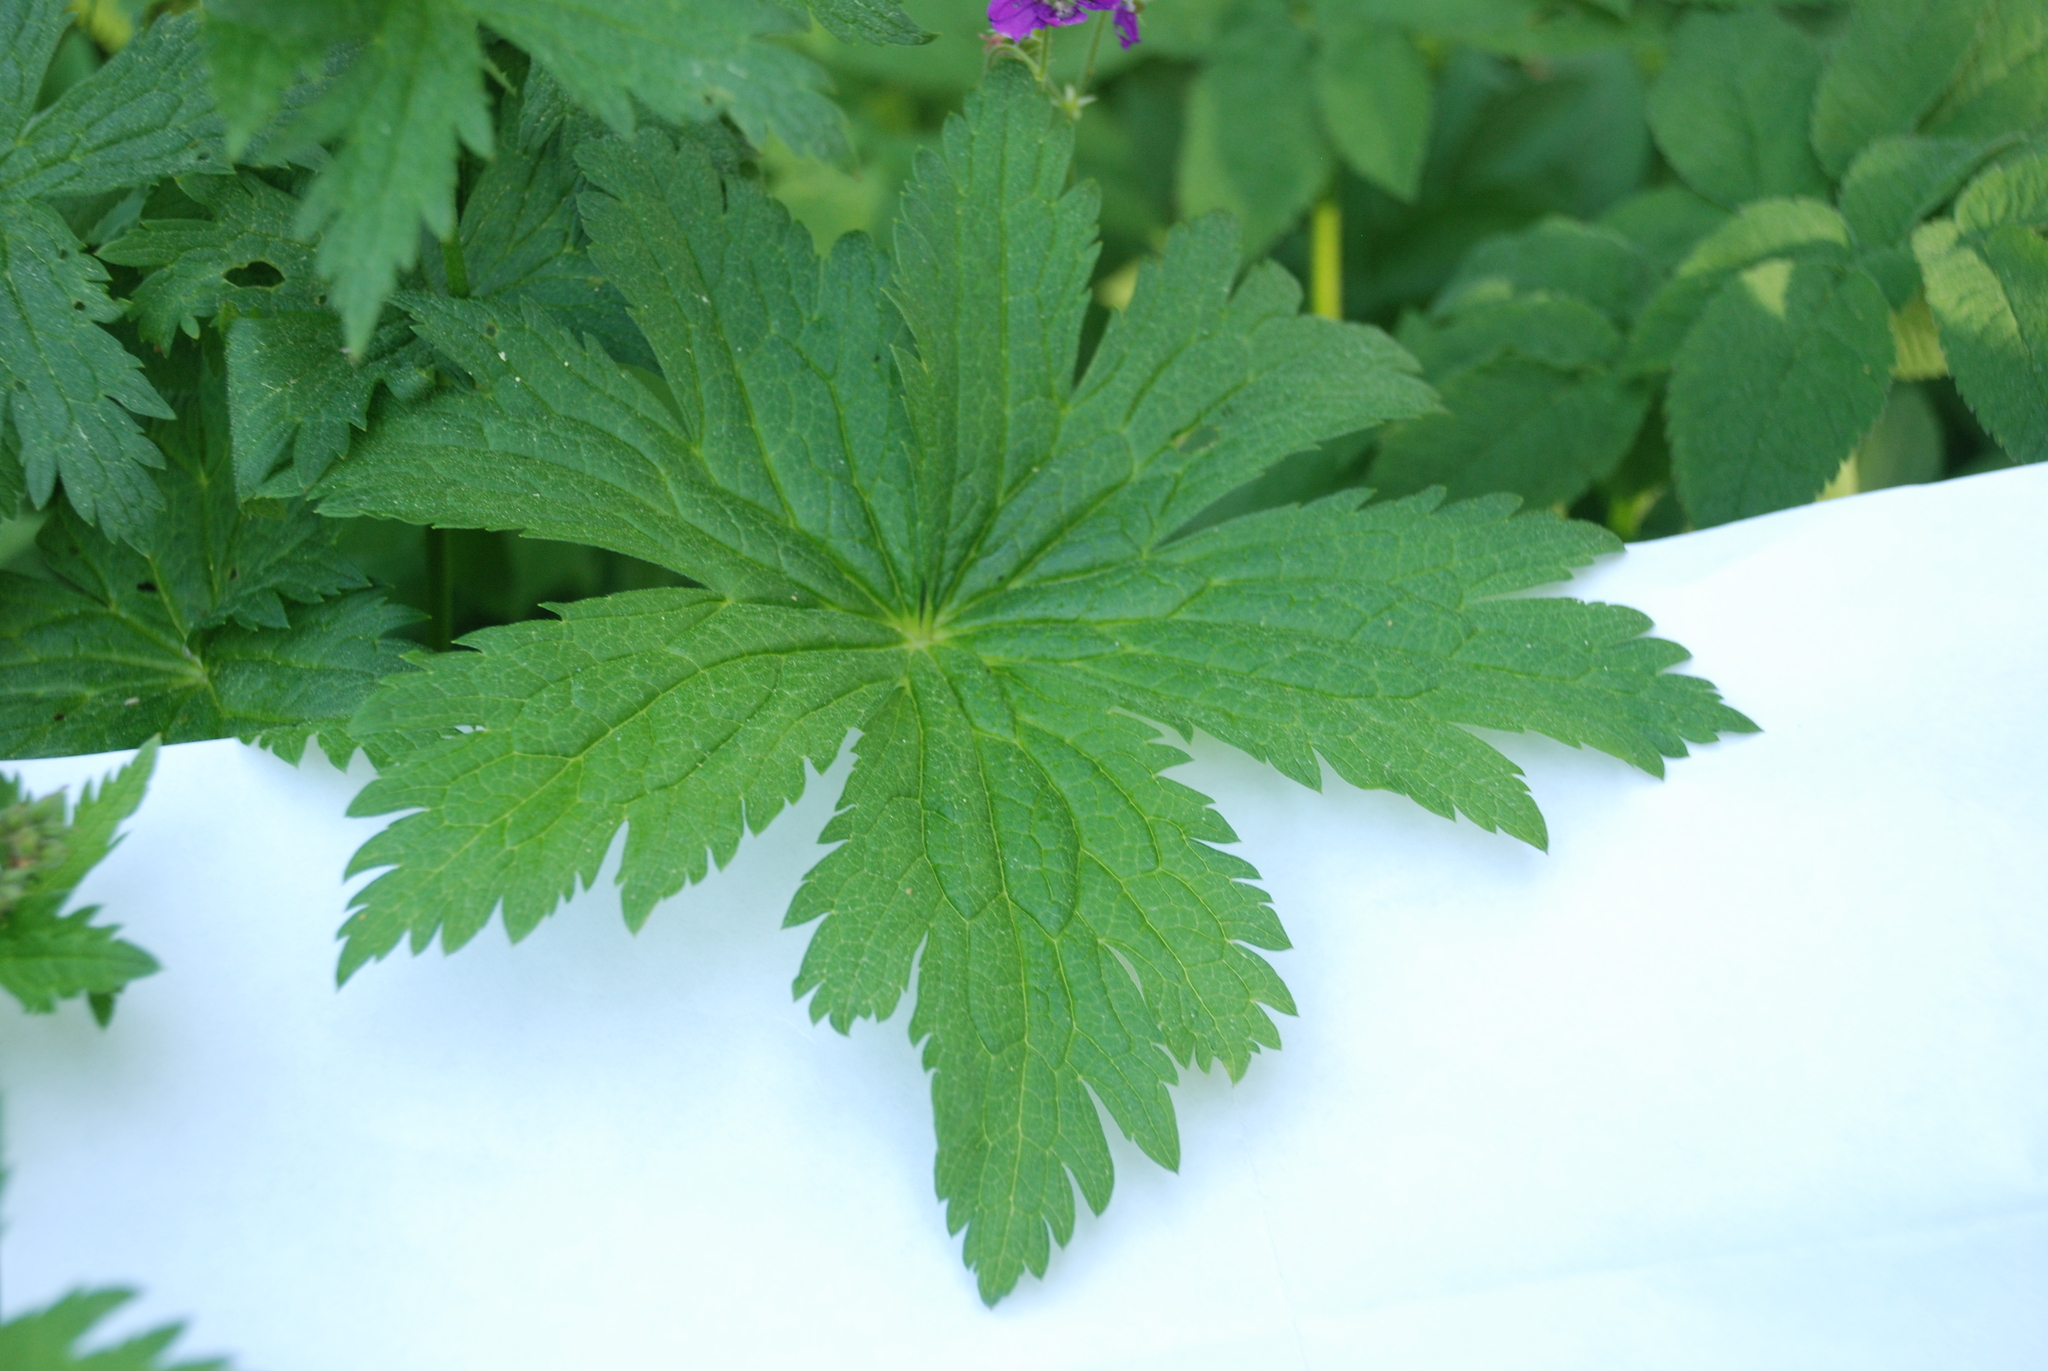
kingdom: Plantae
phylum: Tracheophyta
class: Magnoliopsida
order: Geraniales
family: Geraniaceae
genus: Geranium
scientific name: Geranium sylvaticum
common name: Wood crane's-bill
